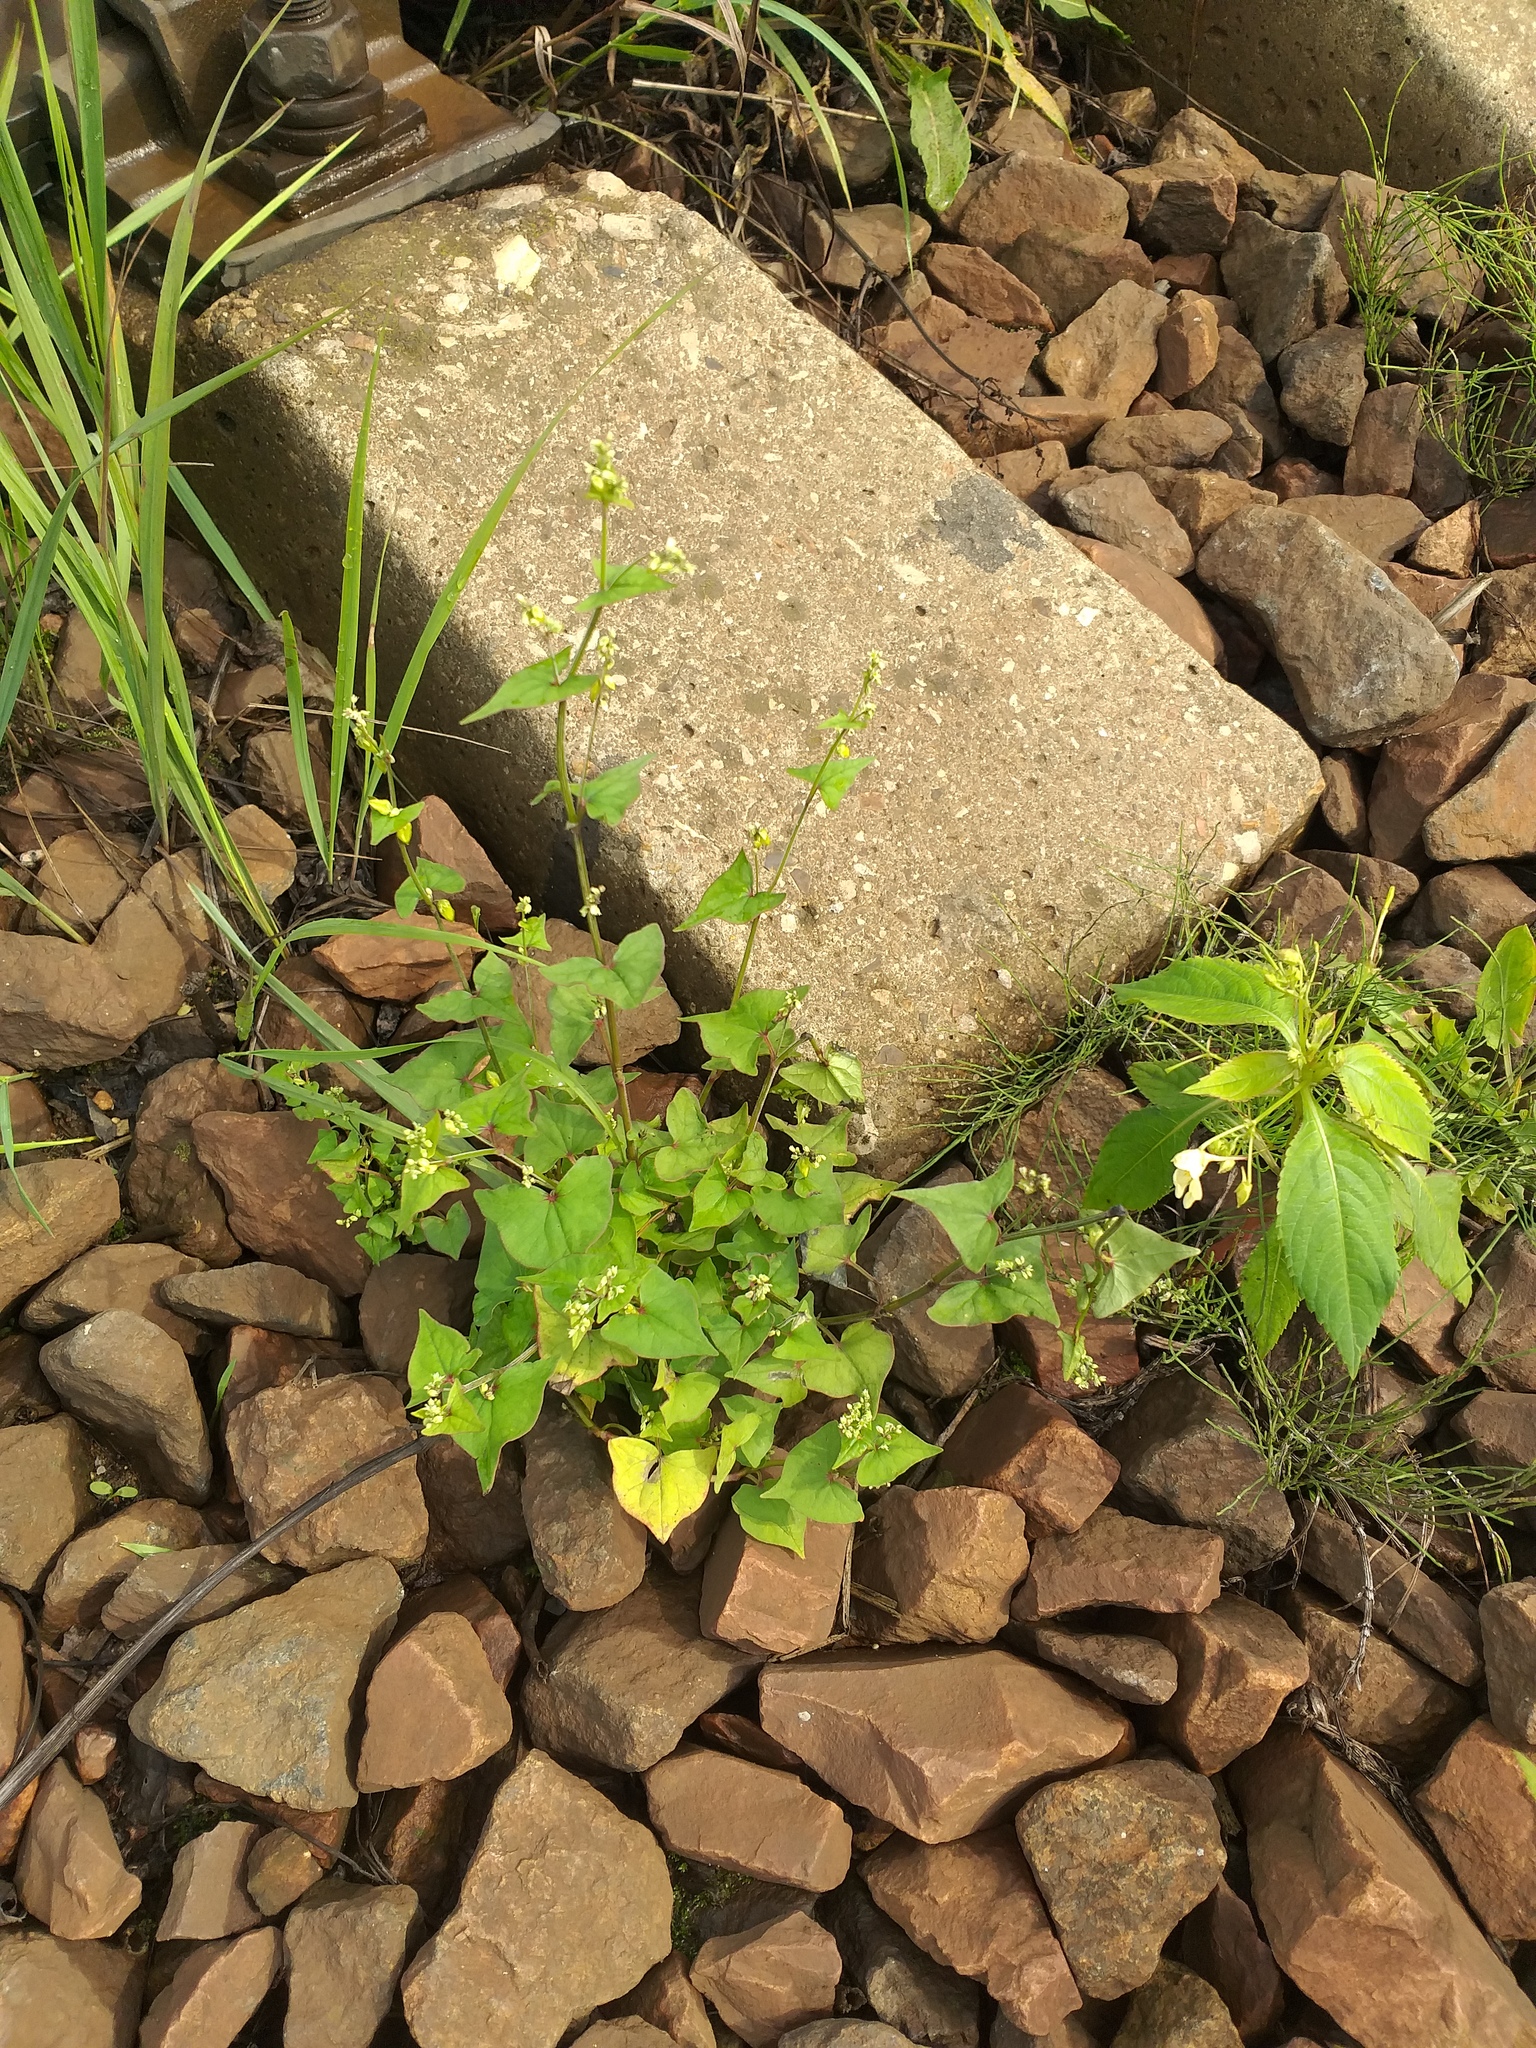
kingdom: Plantae
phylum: Tracheophyta
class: Magnoliopsida
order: Caryophyllales
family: Polygonaceae
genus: Fagopyrum
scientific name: Fagopyrum tataricum
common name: Green buckwheat
